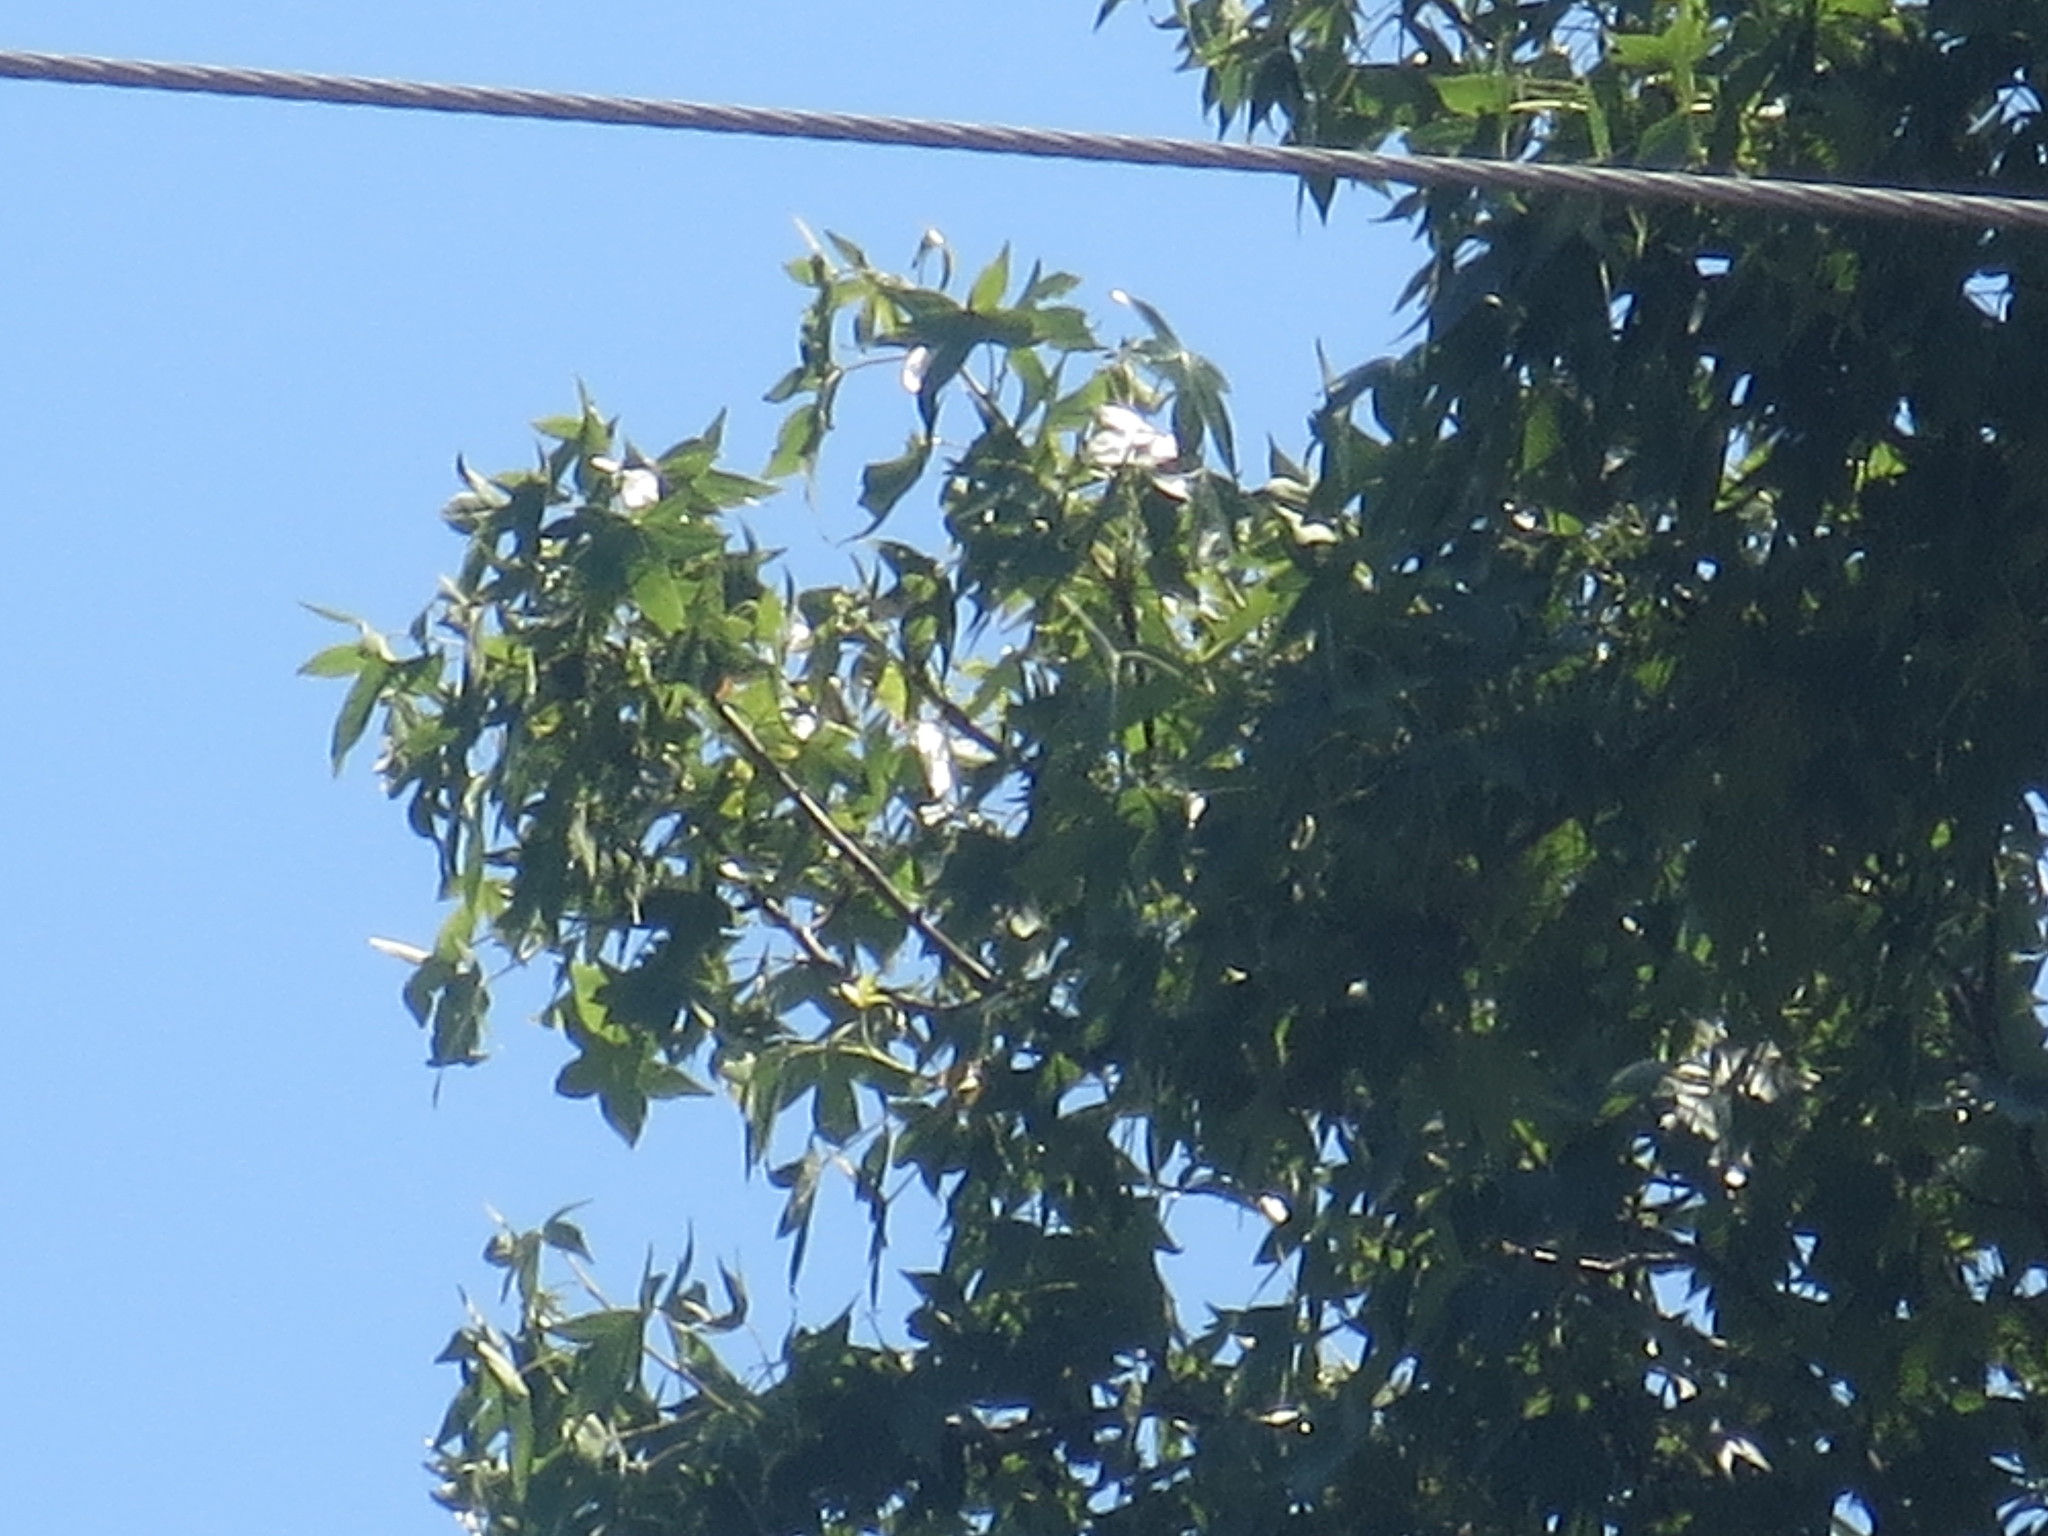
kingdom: Plantae
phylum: Tracheophyta
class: Magnoliopsida
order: Saxifragales
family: Altingiaceae
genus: Liquidambar
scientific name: Liquidambar styraciflua
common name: Sweet gum
